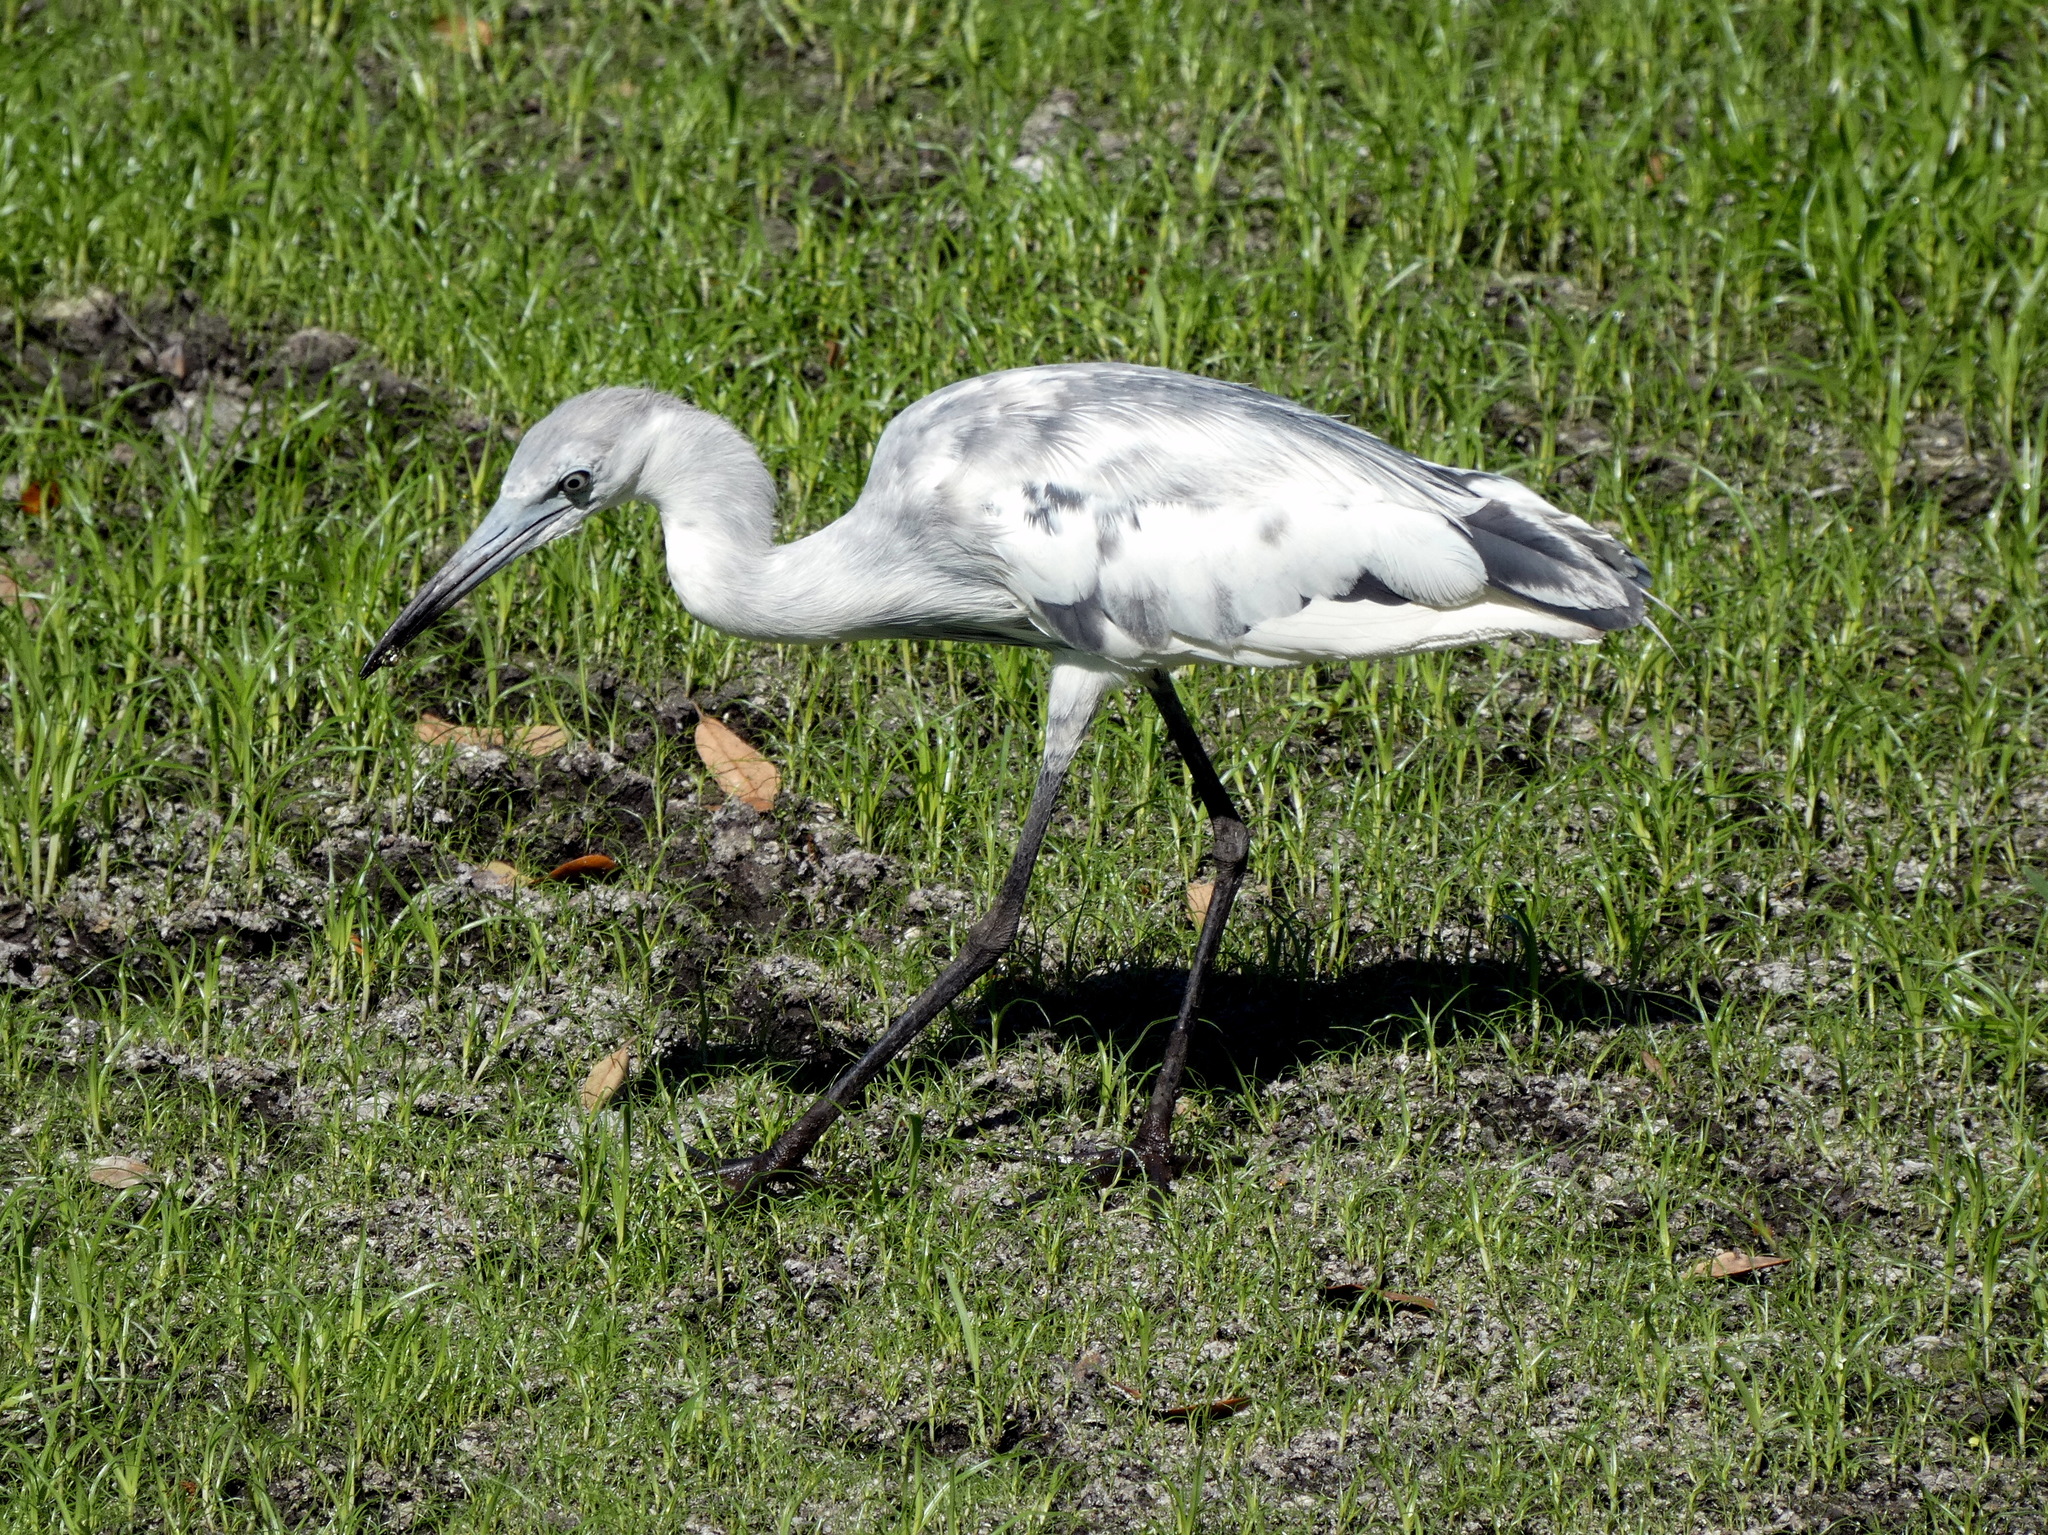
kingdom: Animalia
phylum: Chordata
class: Aves
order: Pelecaniformes
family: Ardeidae
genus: Egretta
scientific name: Egretta caerulea
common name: Little blue heron
